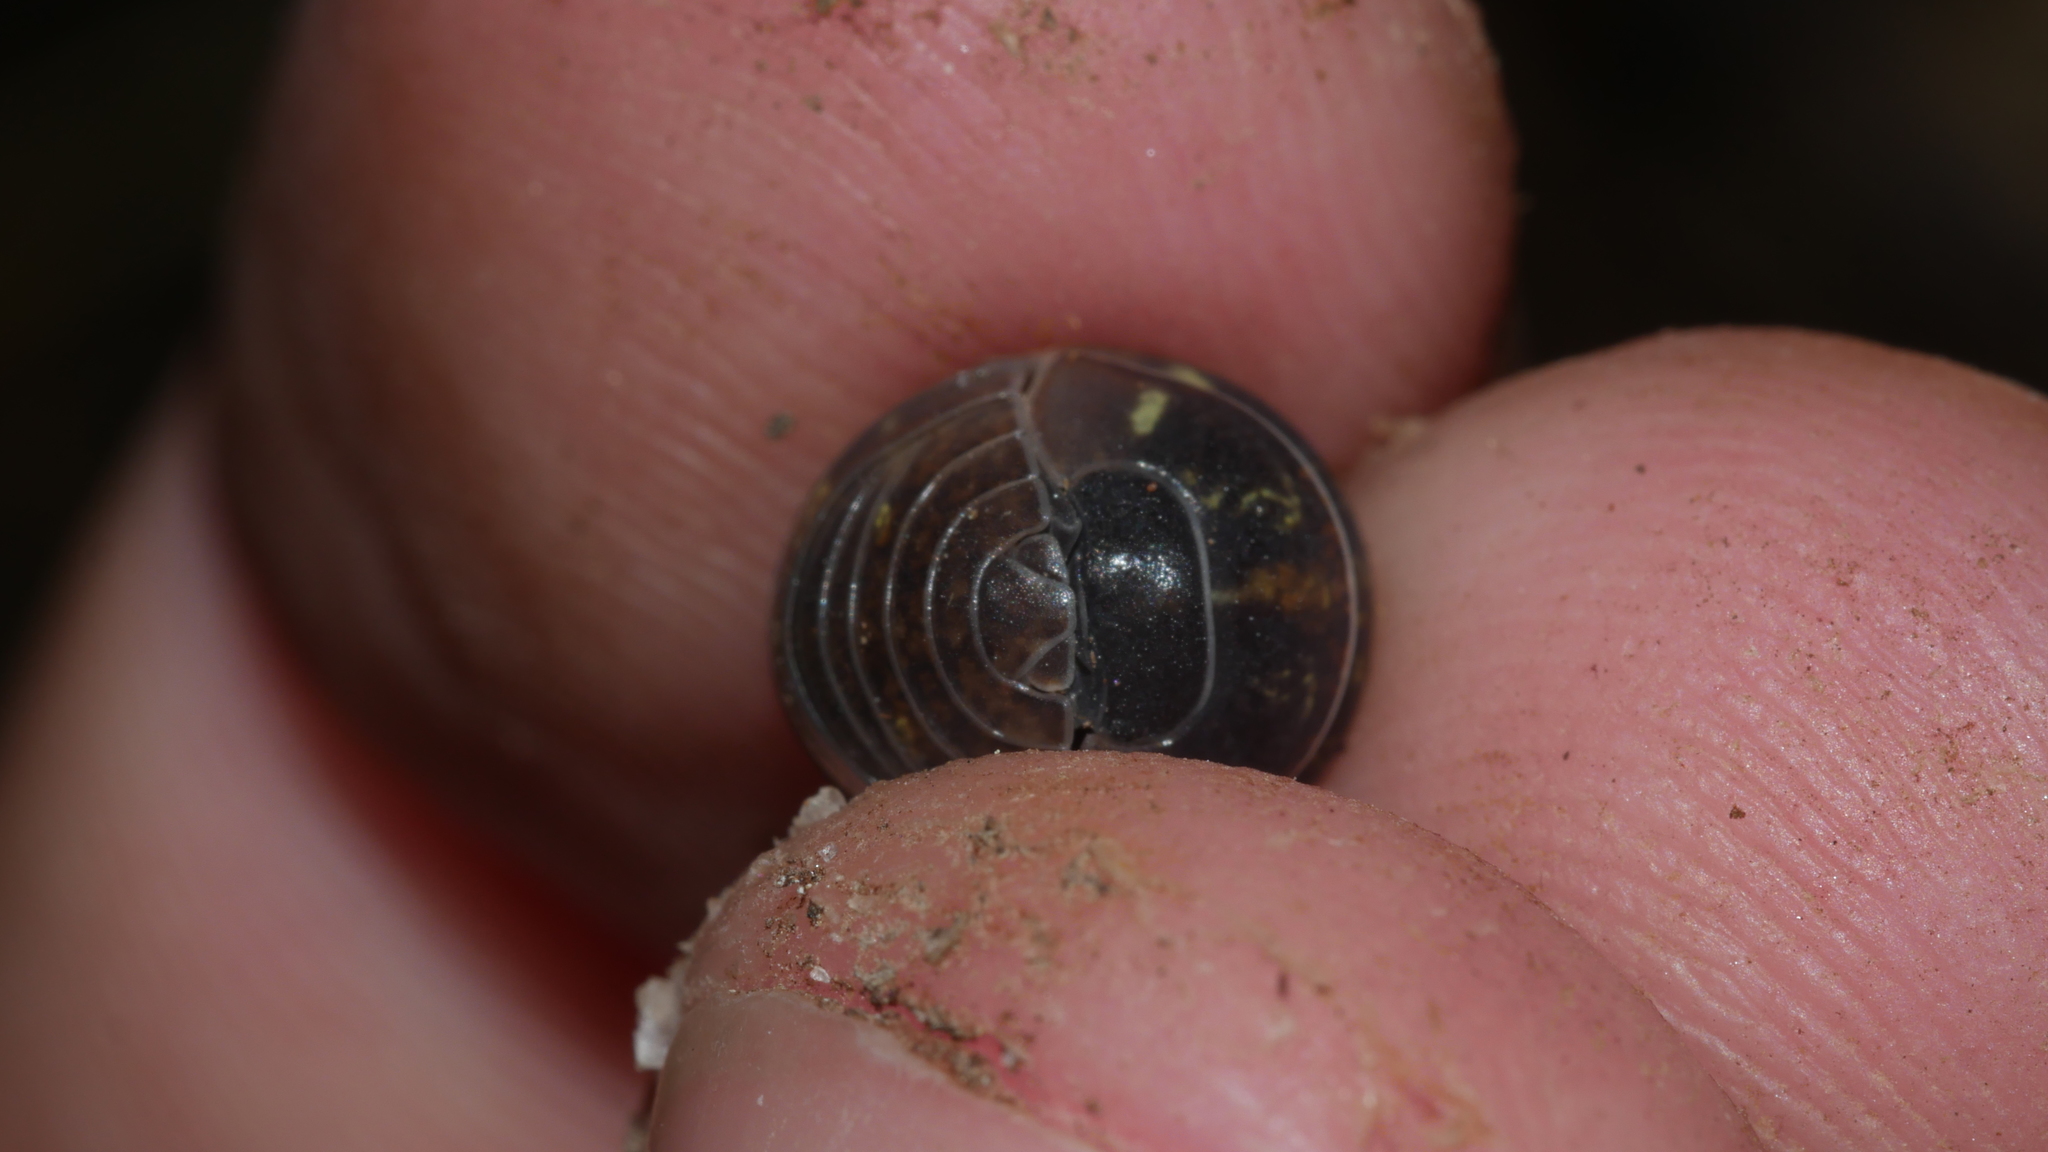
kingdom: Animalia
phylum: Arthropoda
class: Malacostraca
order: Isopoda
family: Armadillidiidae
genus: Armadillidium
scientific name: Armadillidium vulgare
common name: Common pill woodlouse
